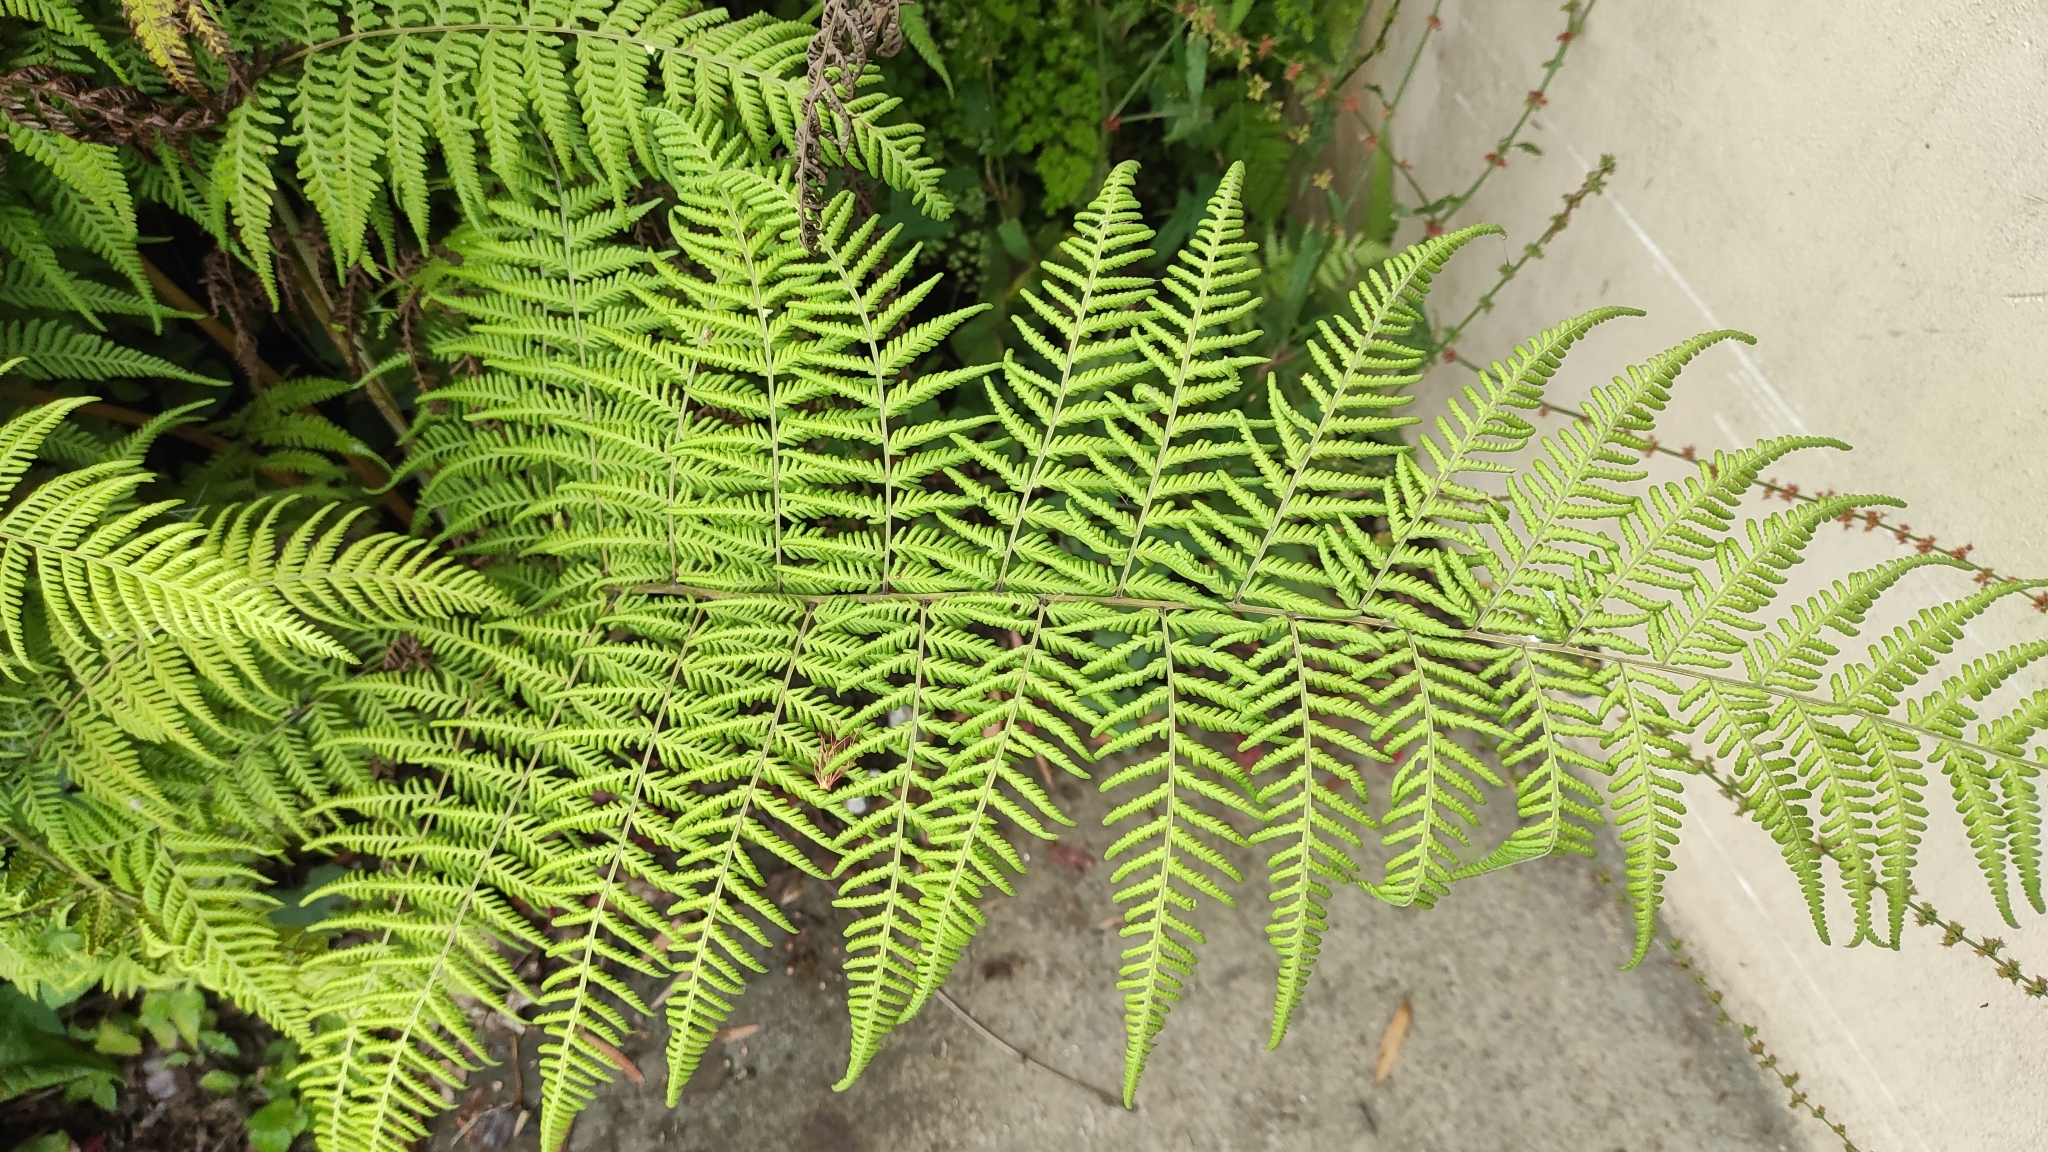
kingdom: Plantae
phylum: Tracheophyta
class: Polypodiopsida
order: Polypodiales
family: Thelypteridaceae
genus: Macrothelypteris
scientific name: Macrothelypteris torresiana
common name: Swordfern
